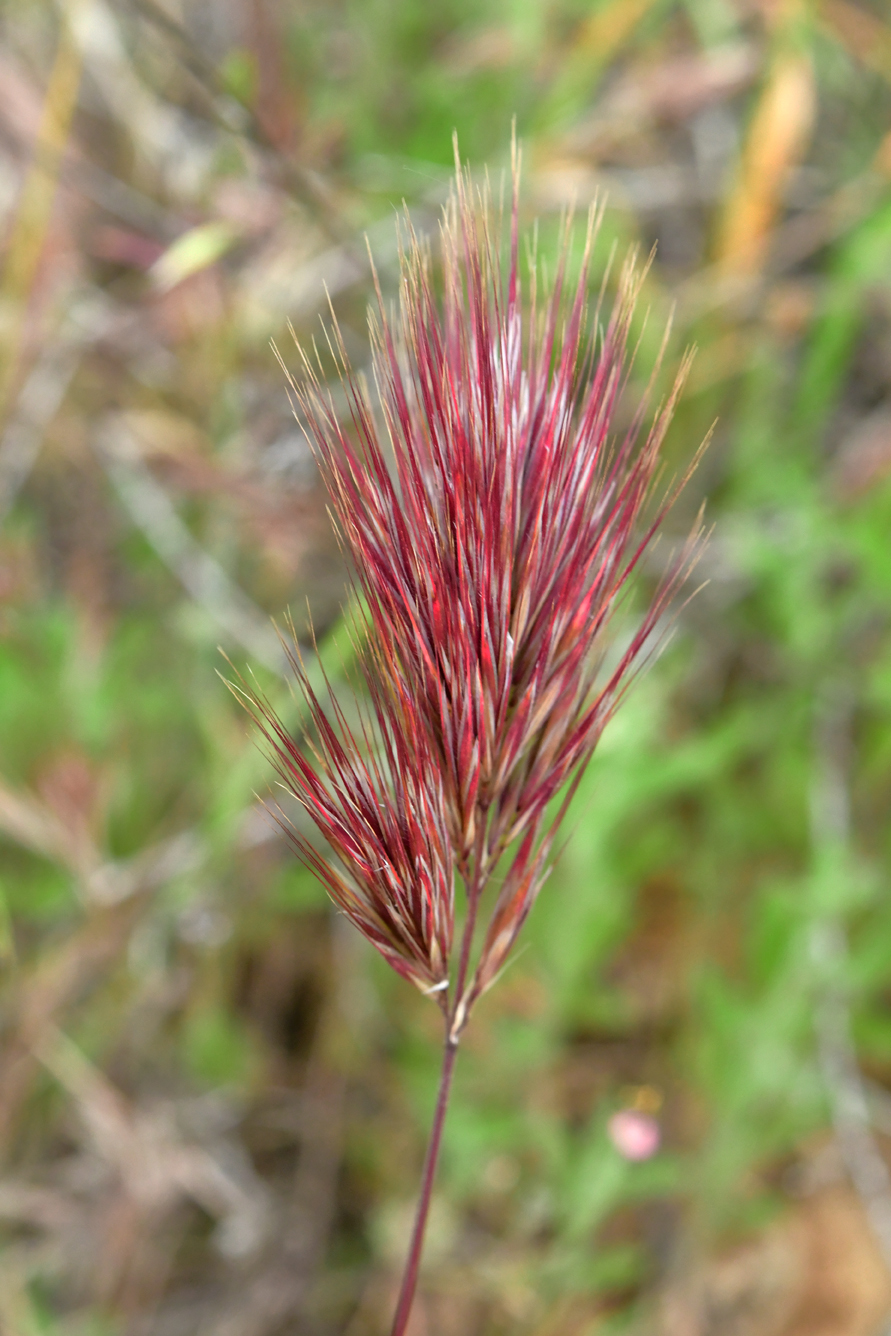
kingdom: Plantae
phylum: Tracheophyta
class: Liliopsida
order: Poales
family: Poaceae
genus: Bromus
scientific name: Bromus rubens
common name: Red brome
